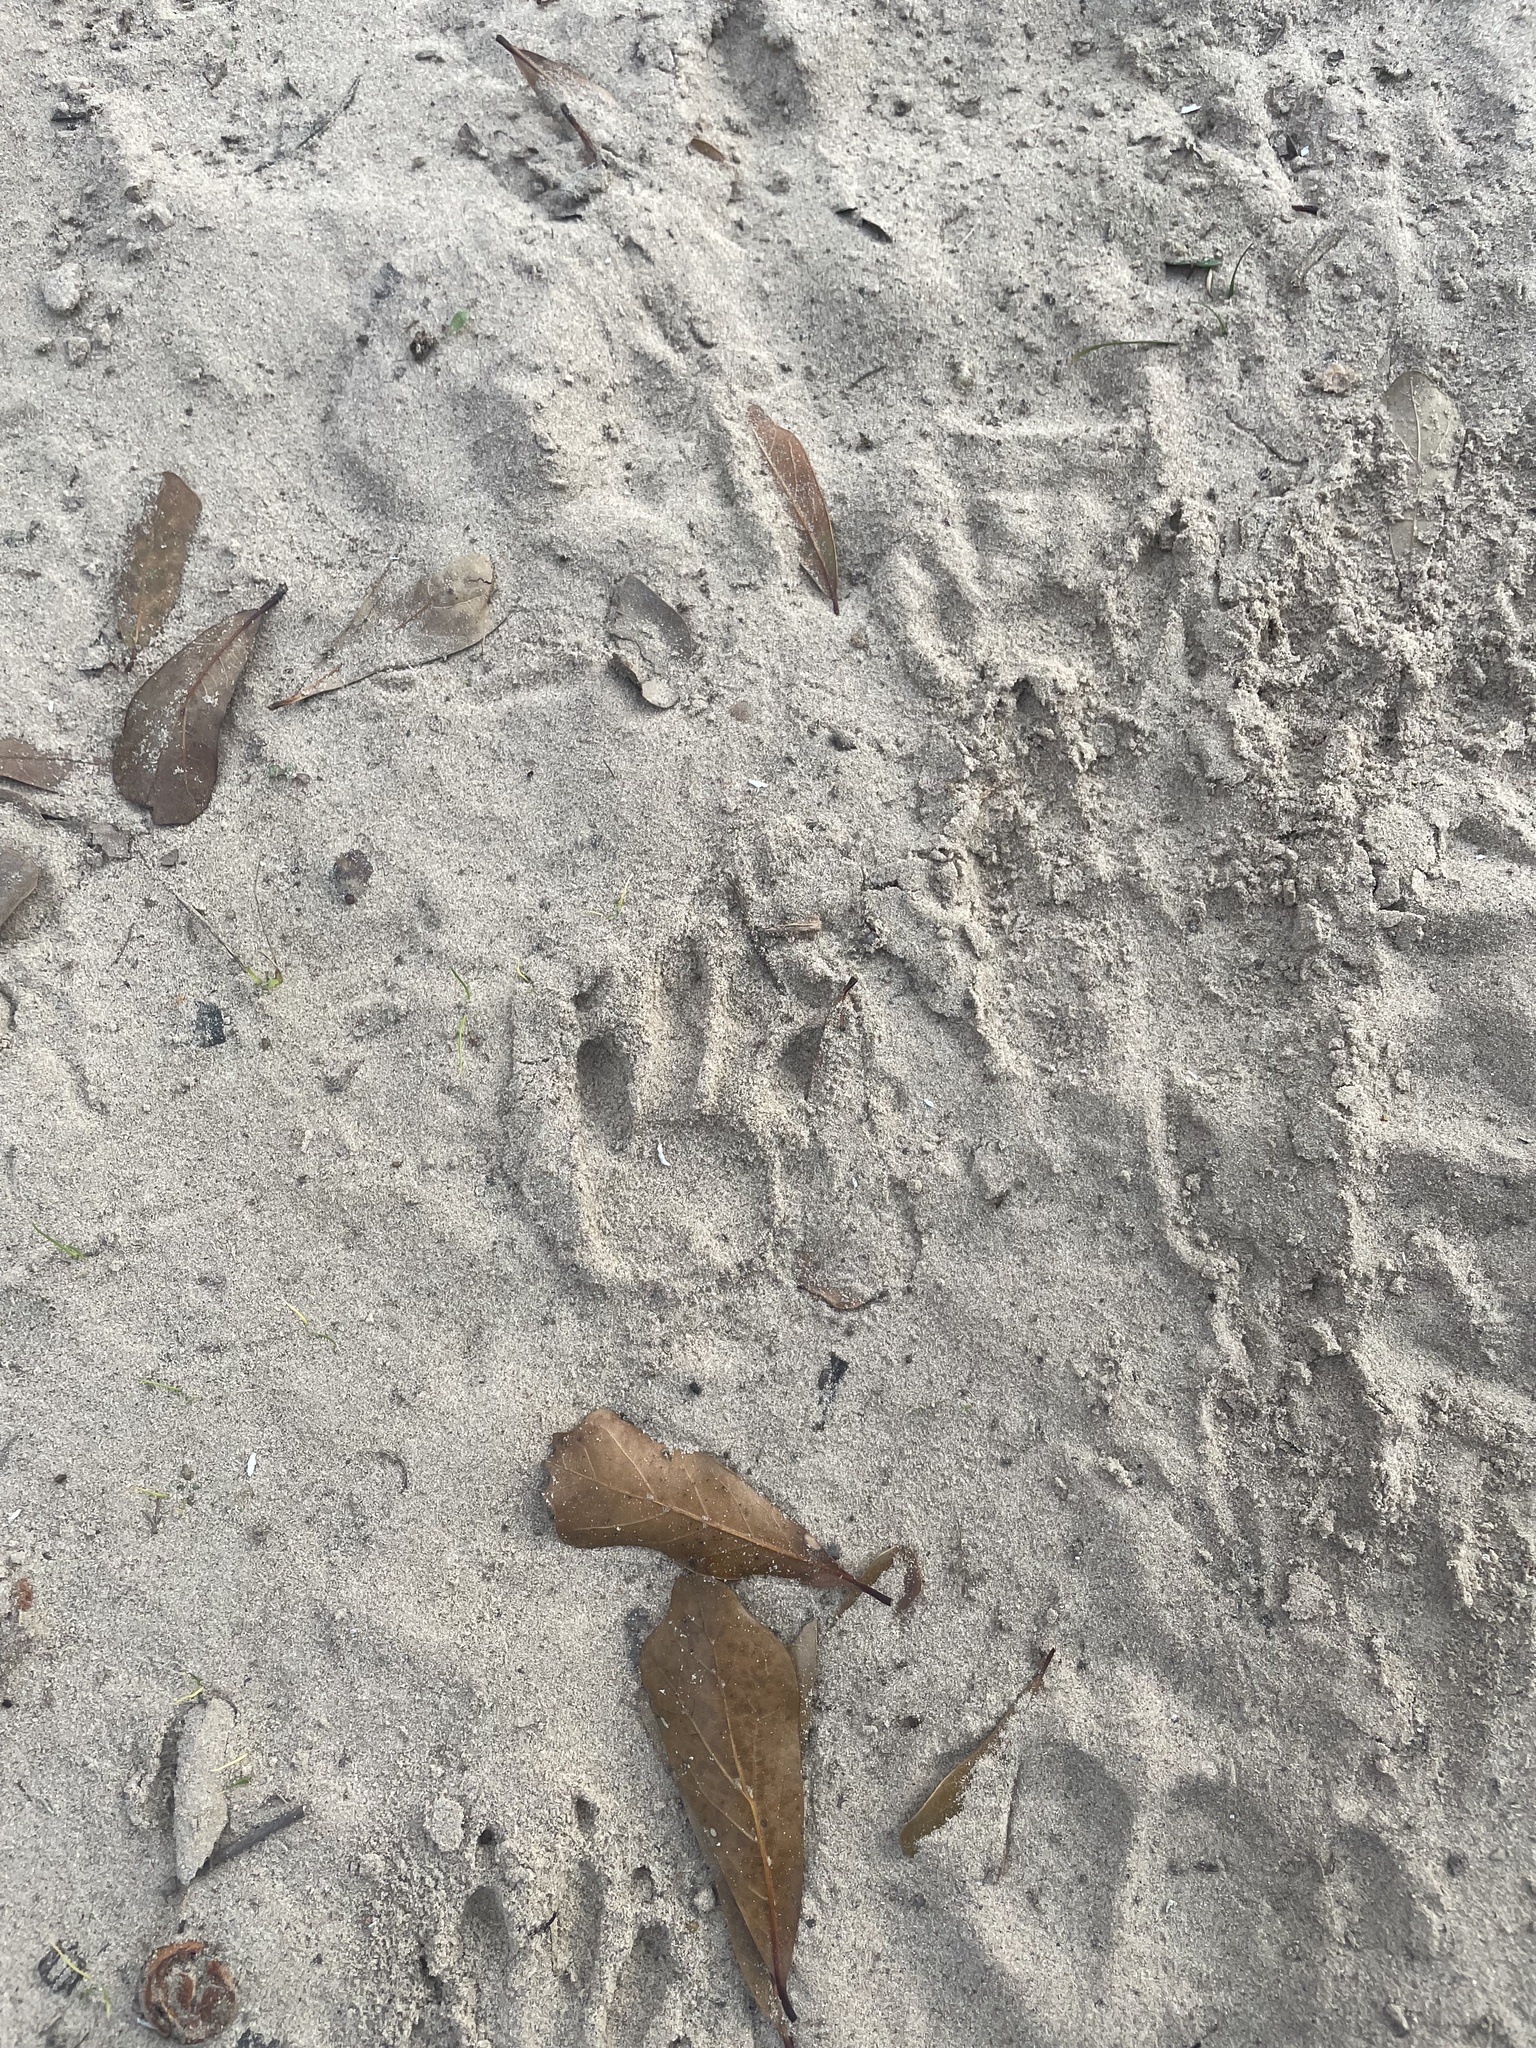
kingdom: Animalia
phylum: Chordata
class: Mammalia
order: Carnivora
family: Procyonidae
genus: Procyon
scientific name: Procyon lotor
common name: Raccoon
